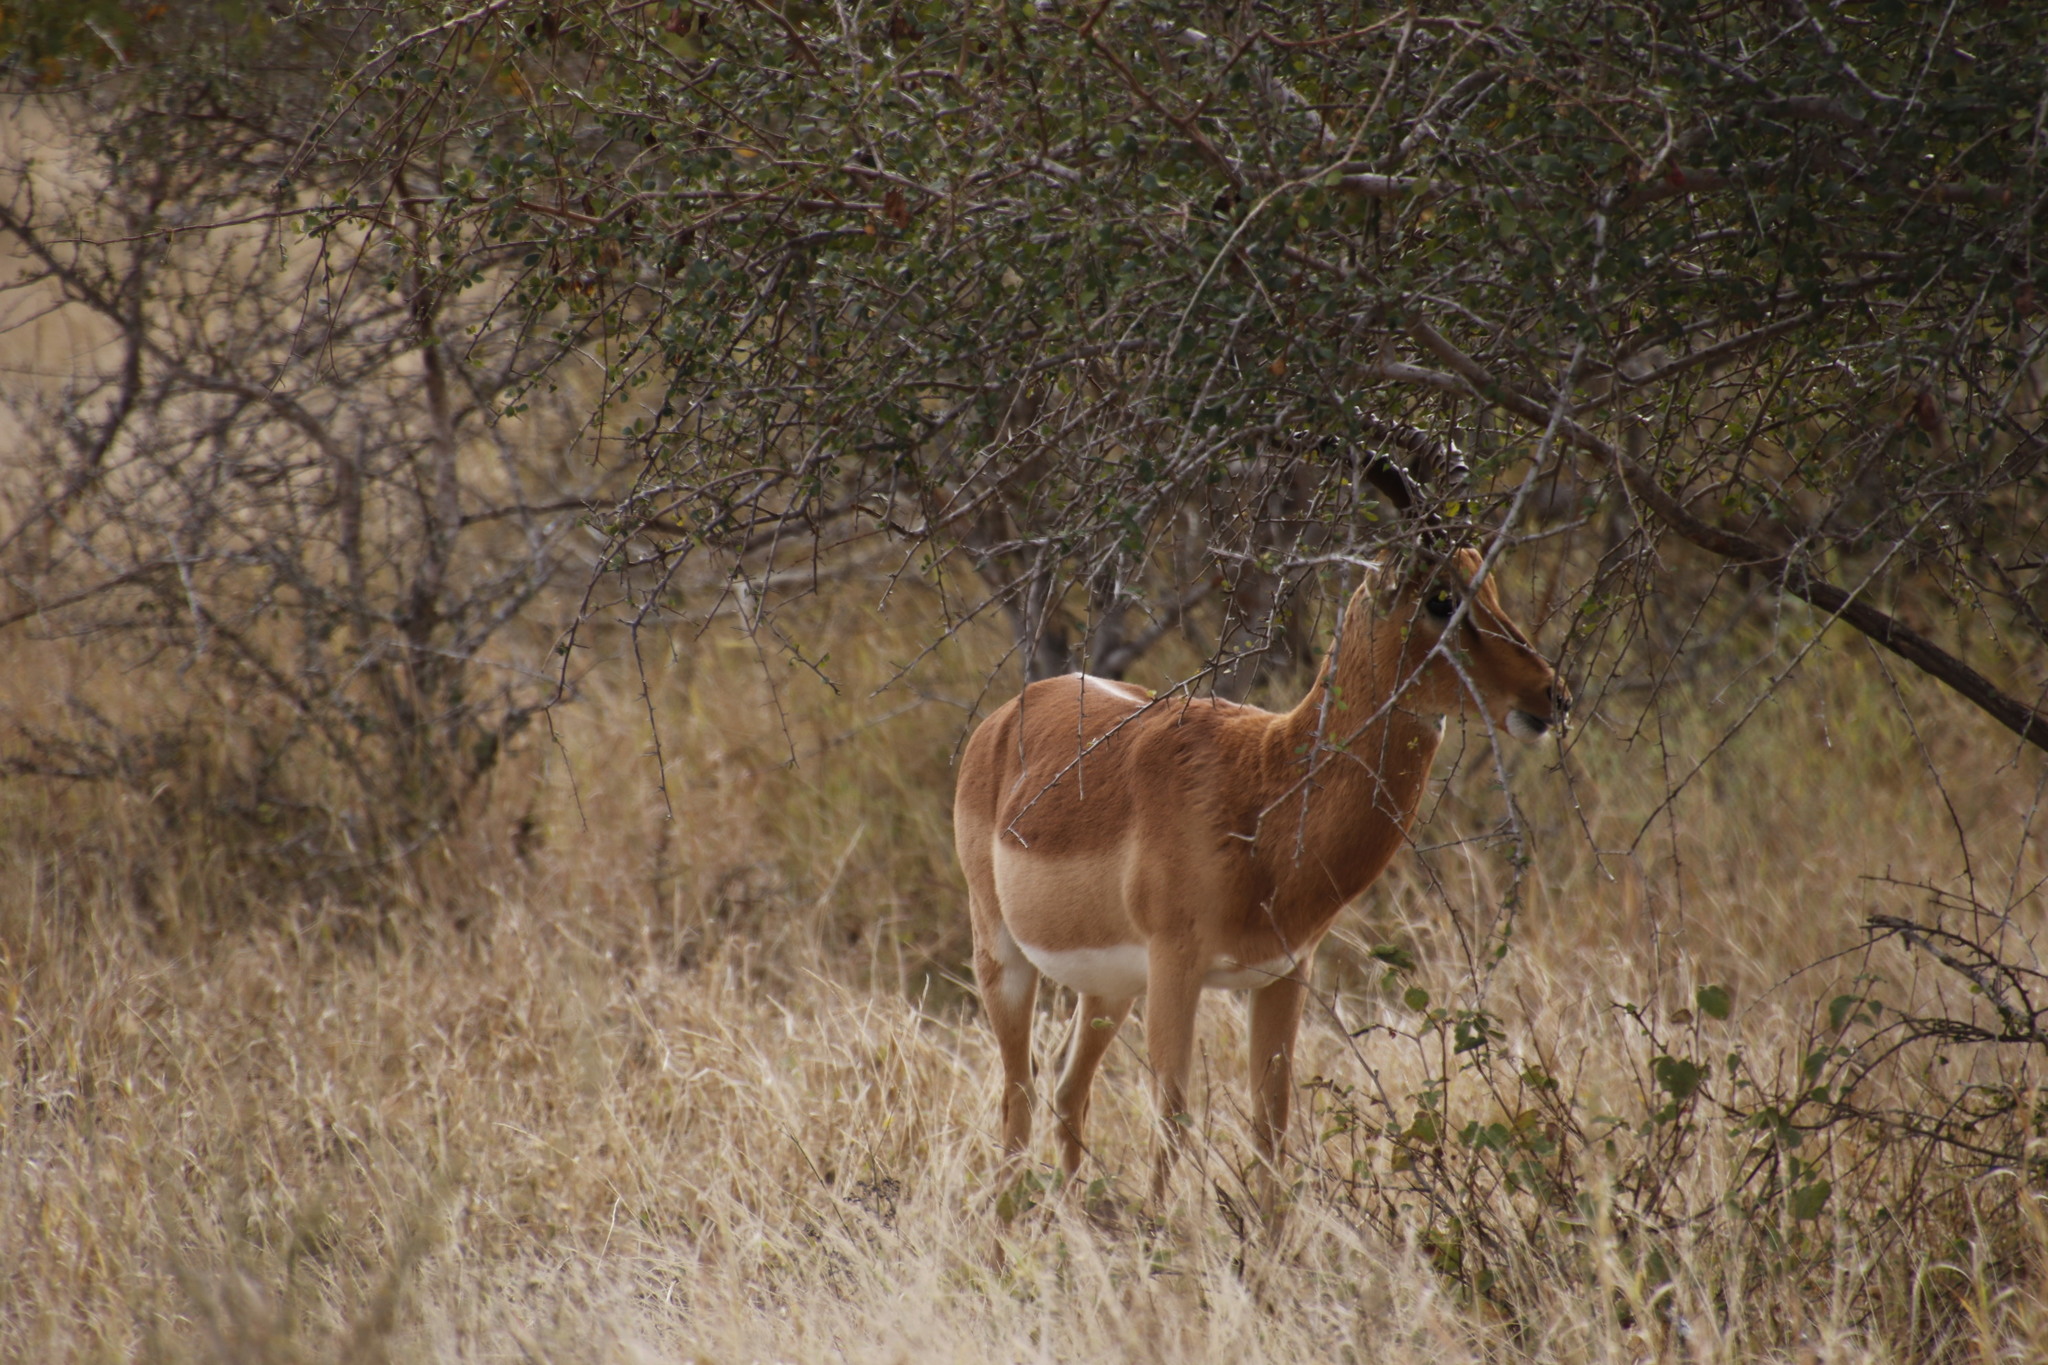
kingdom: Animalia
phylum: Chordata
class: Mammalia
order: Artiodactyla
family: Bovidae
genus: Aepyceros
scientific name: Aepyceros melampus
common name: Impala
